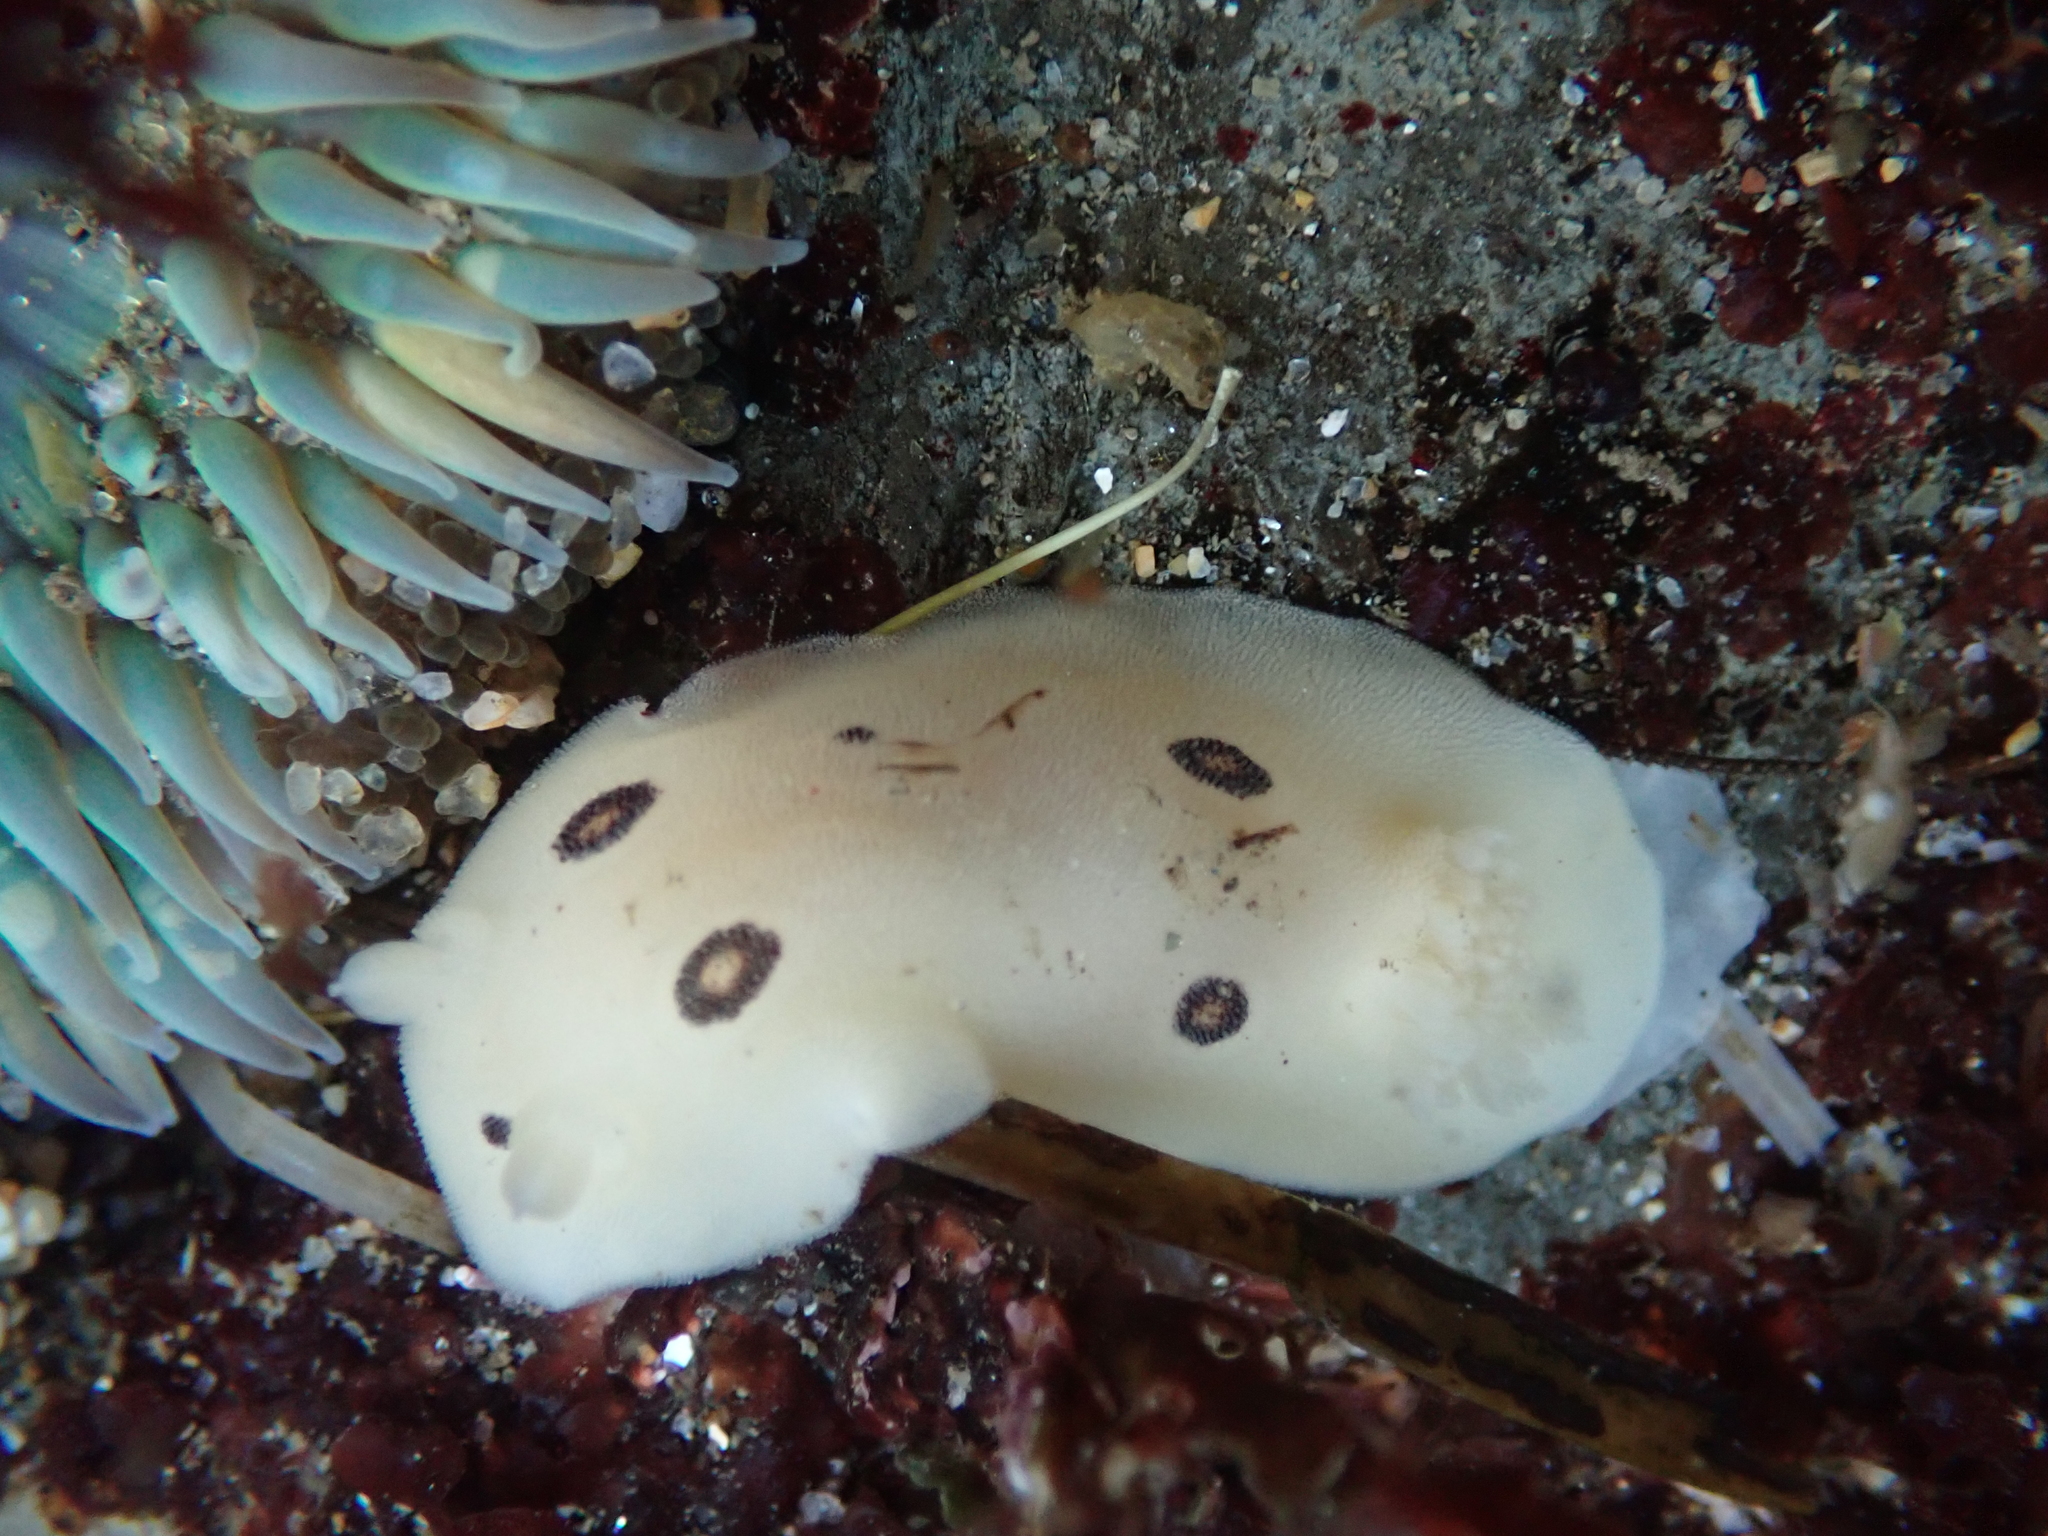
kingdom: Animalia
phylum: Mollusca
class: Gastropoda
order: Nudibranchia
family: Discodorididae
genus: Diaulula
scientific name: Diaulula sandiegensis
